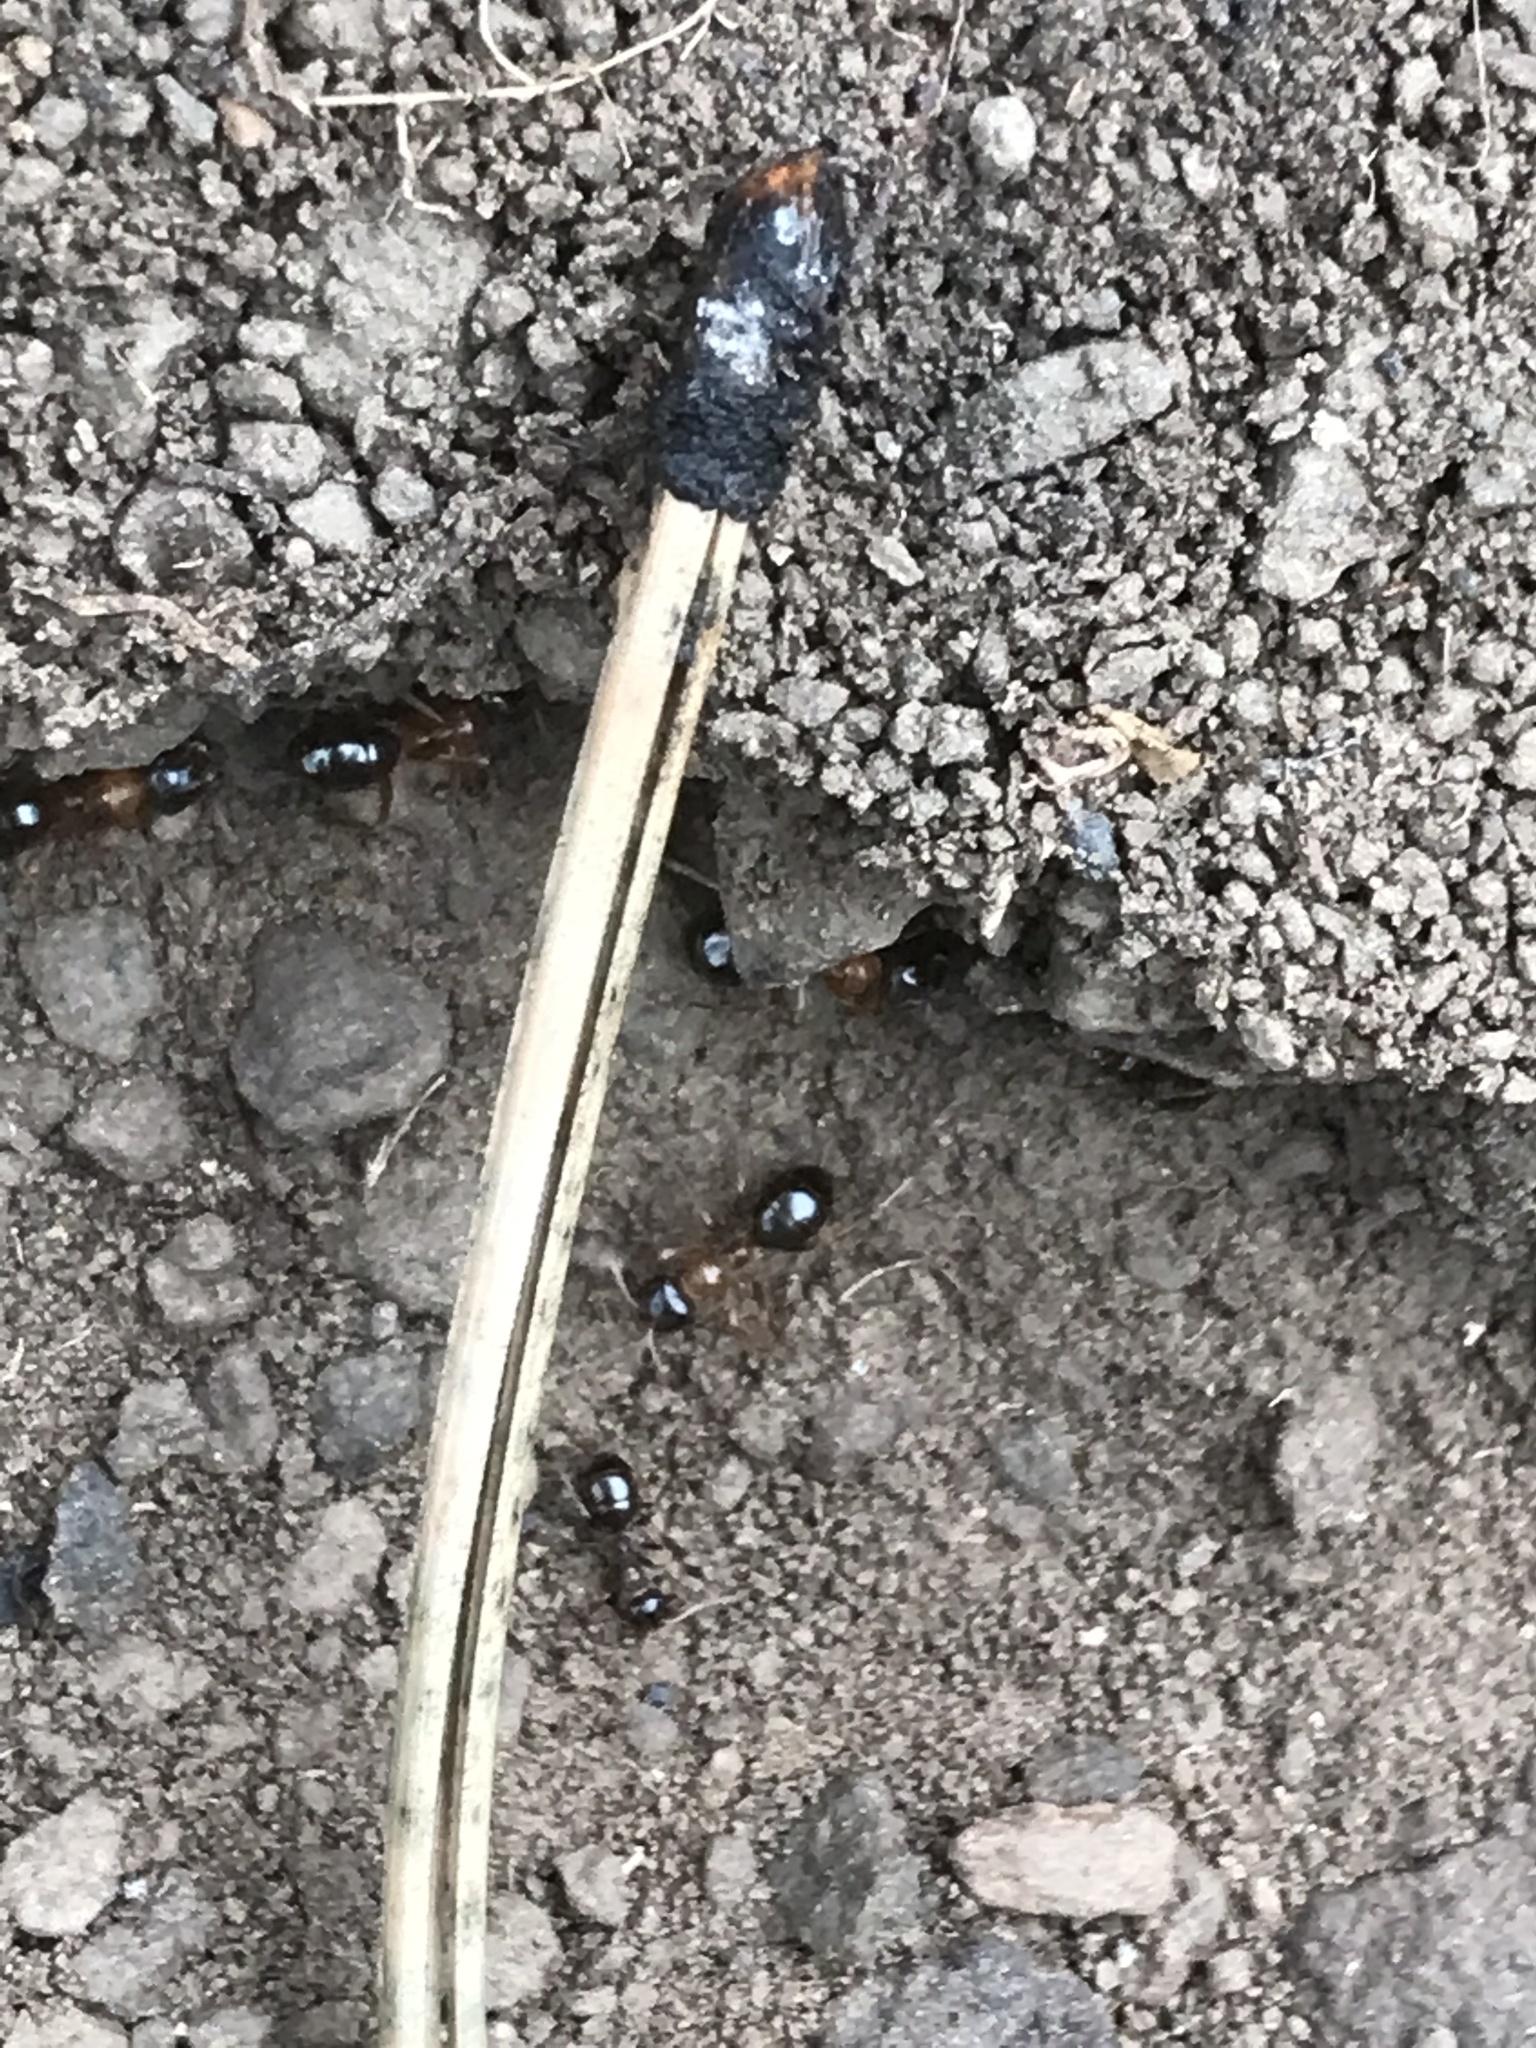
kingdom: Animalia
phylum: Arthropoda
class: Insecta
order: Hymenoptera
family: Formicidae
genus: Formica
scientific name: Formica subpolita
